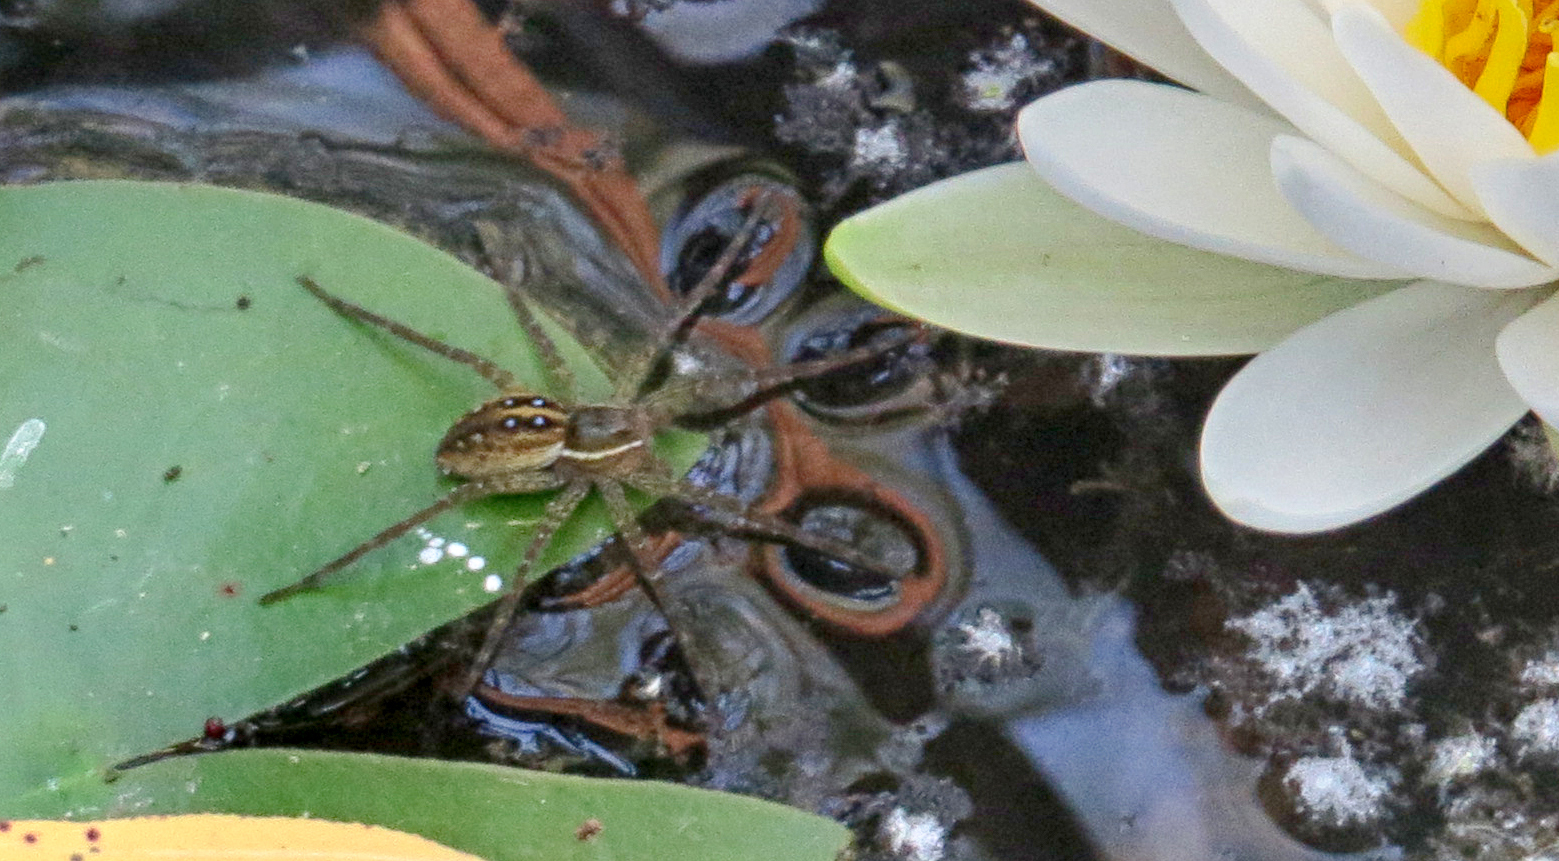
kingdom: Animalia
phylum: Arthropoda
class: Arachnida
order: Araneae
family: Pisauridae
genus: Dolomedes
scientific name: Dolomedes triton
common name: Six-spotted fishing spider
